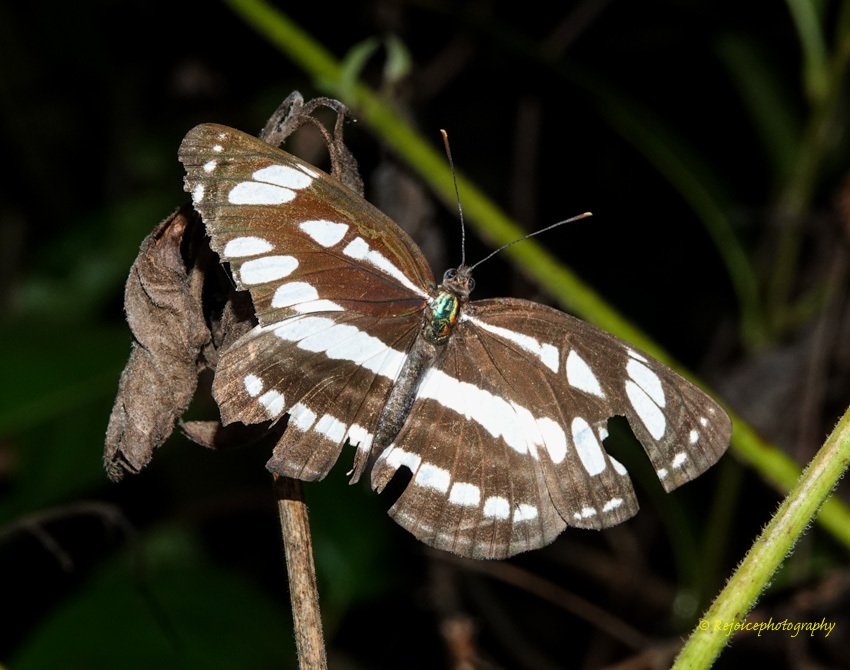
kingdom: Animalia
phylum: Arthropoda
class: Insecta
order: Lepidoptera
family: Nymphalidae
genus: Neptis
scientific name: Neptis hylas
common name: Common sailer
